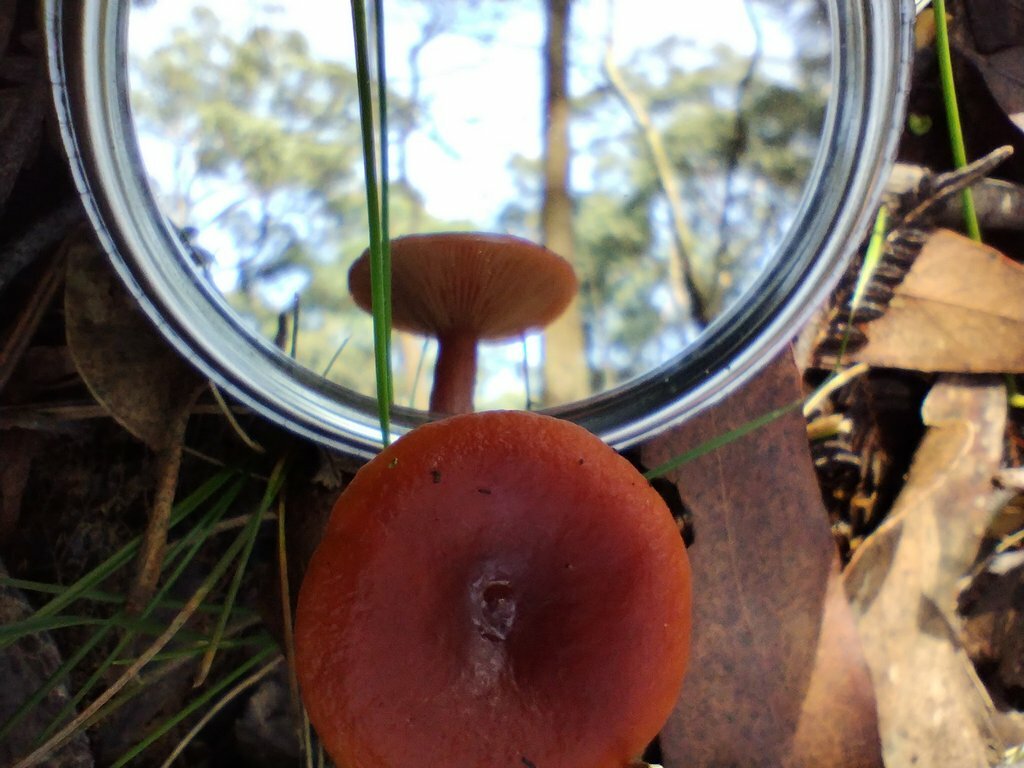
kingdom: Fungi
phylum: Basidiomycota
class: Agaricomycetes
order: Russulales
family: Russulaceae
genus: Lactarius
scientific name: Lactarius eucalypti
